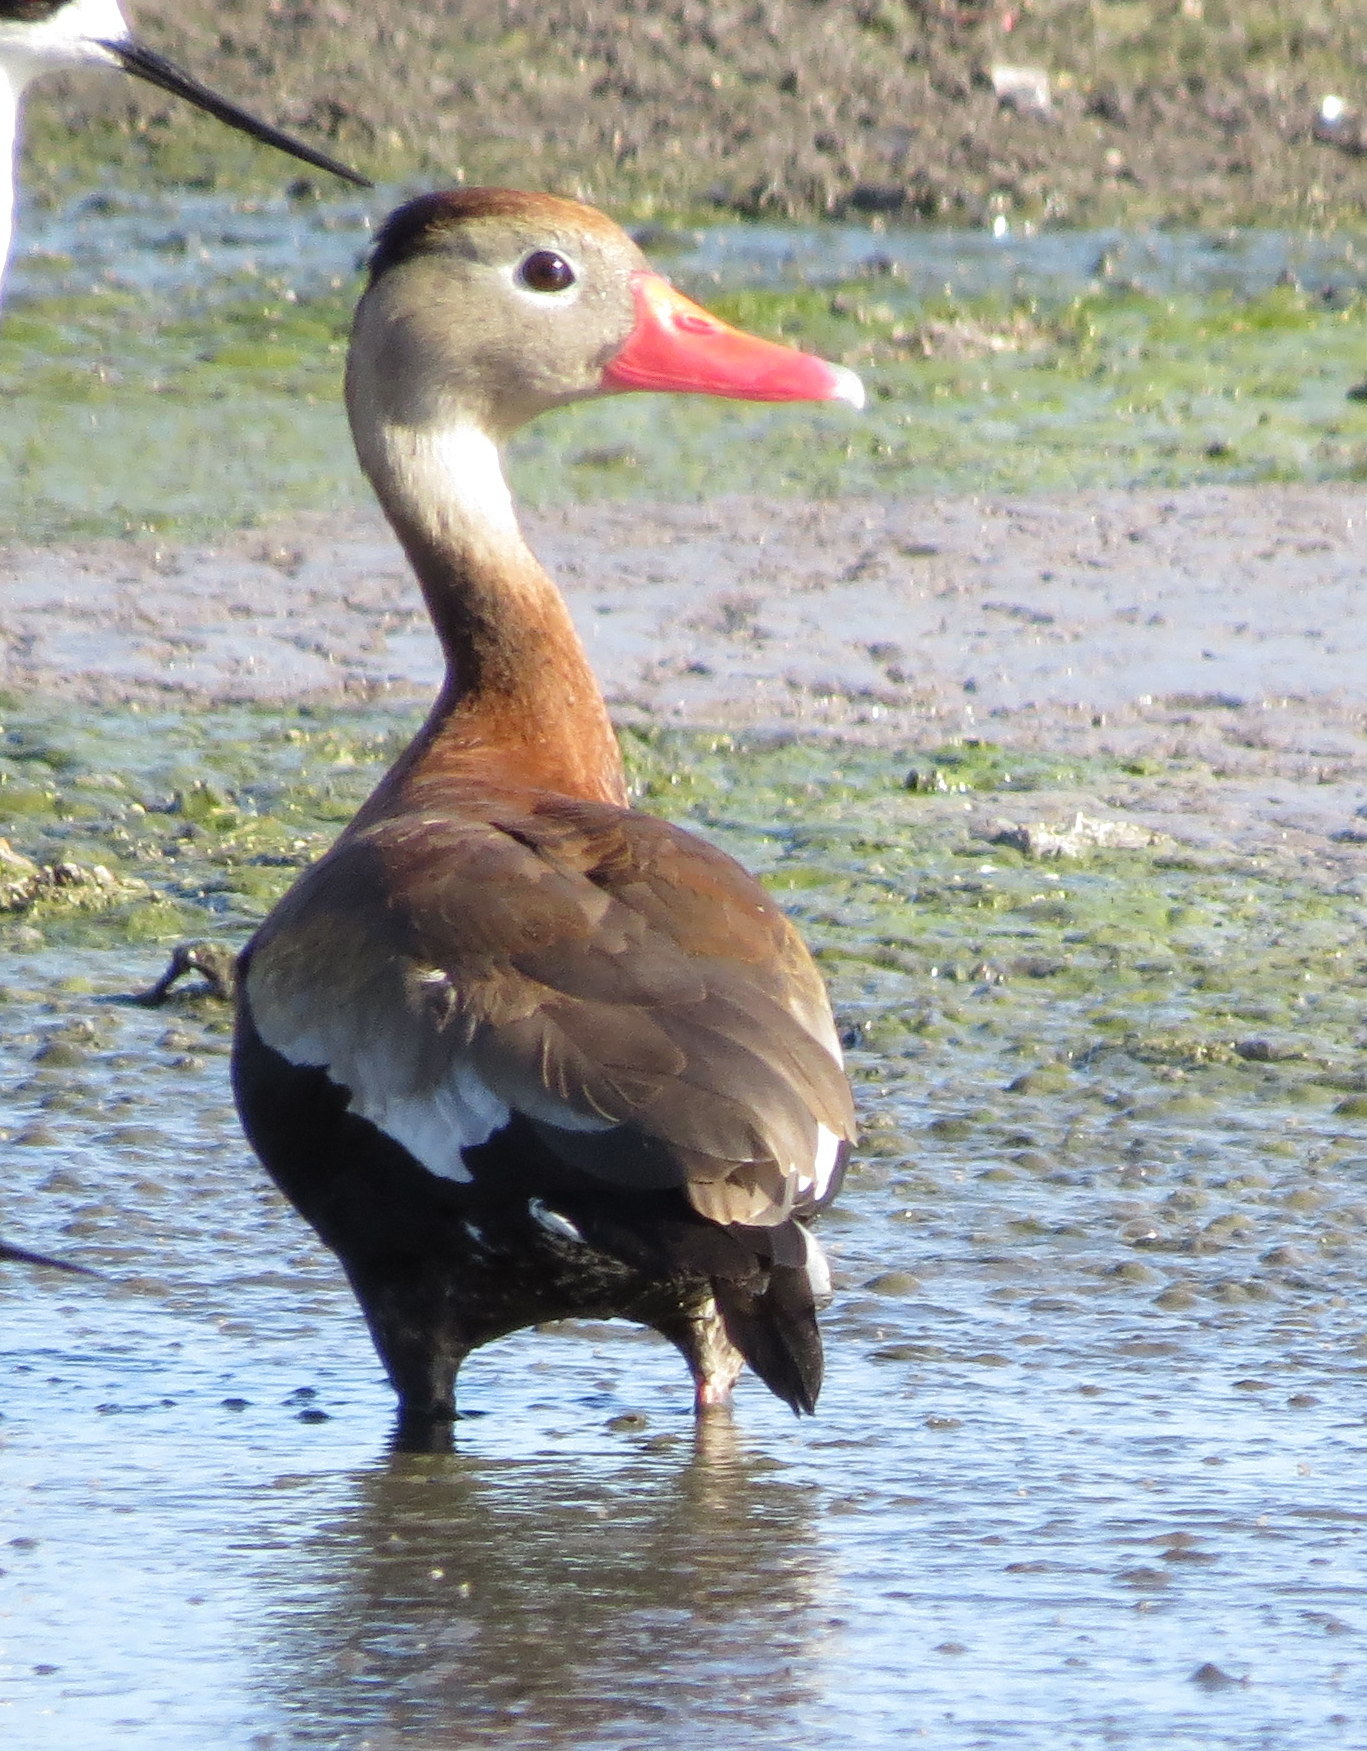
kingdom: Animalia
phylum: Chordata
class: Aves
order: Anseriformes
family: Anatidae
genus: Dendrocygna
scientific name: Dendrocygna autumnalis
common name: Black-bellied whistling duck
